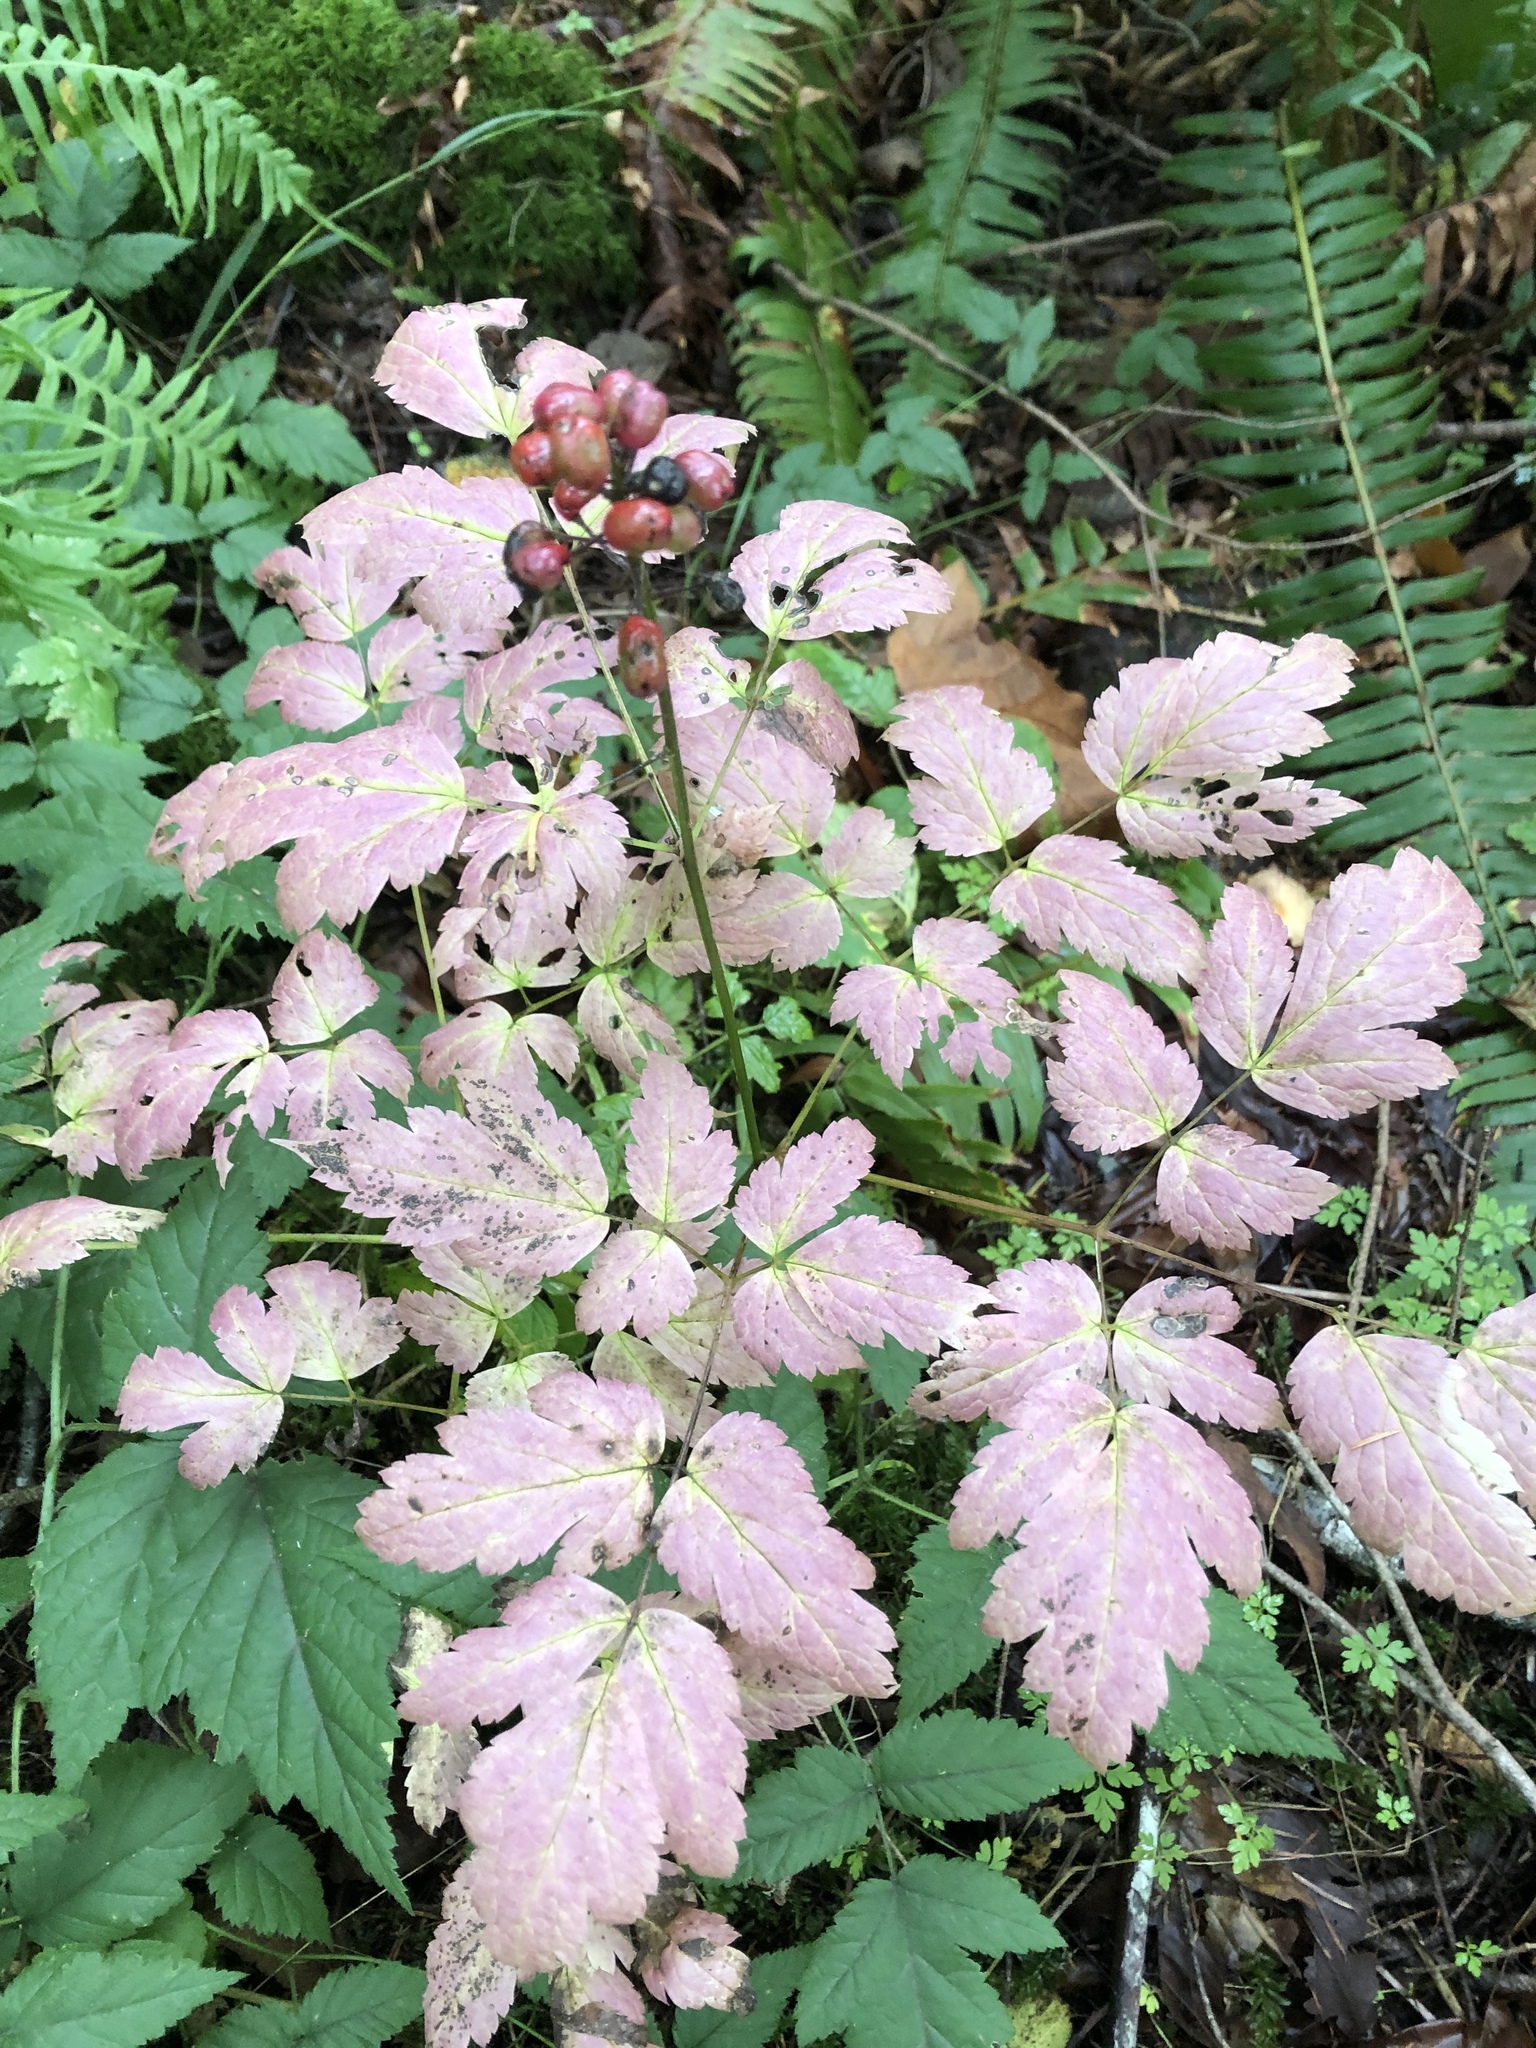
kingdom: Plantae
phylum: Tracheophyta
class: Magnoliopsida
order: Ranunculales
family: Ranunculaceae
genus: Actaea
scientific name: Actaea rubra
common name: Red baneberry
